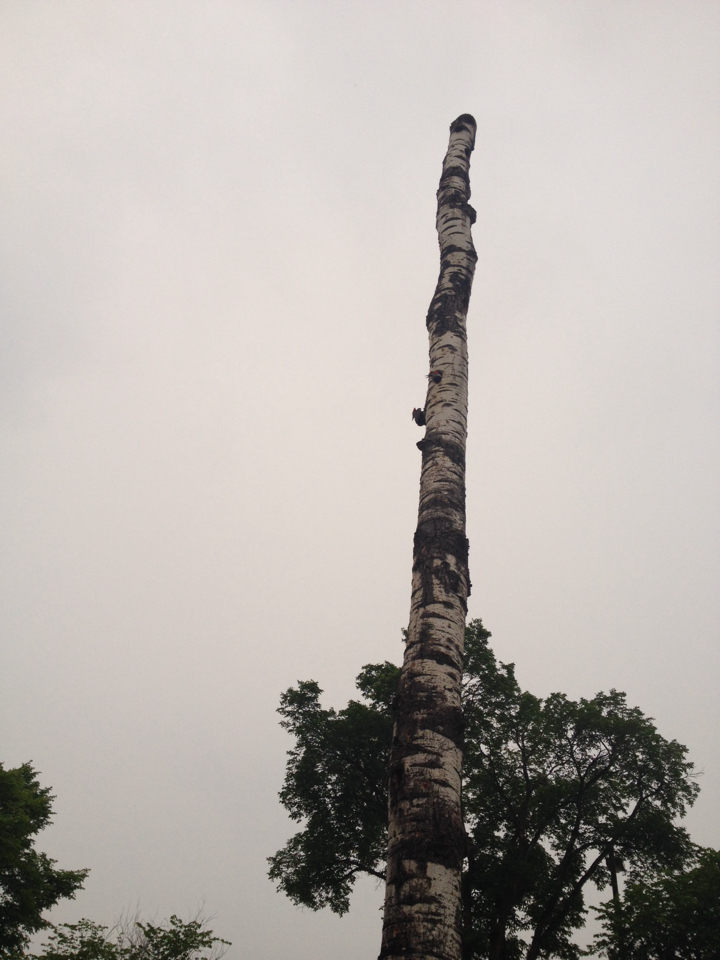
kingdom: Animalia
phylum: Chordata
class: Aves
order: Piciformes
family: Picidae
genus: Dryocopus
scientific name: Dryocopus pileatus
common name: Pileated woodpecker
